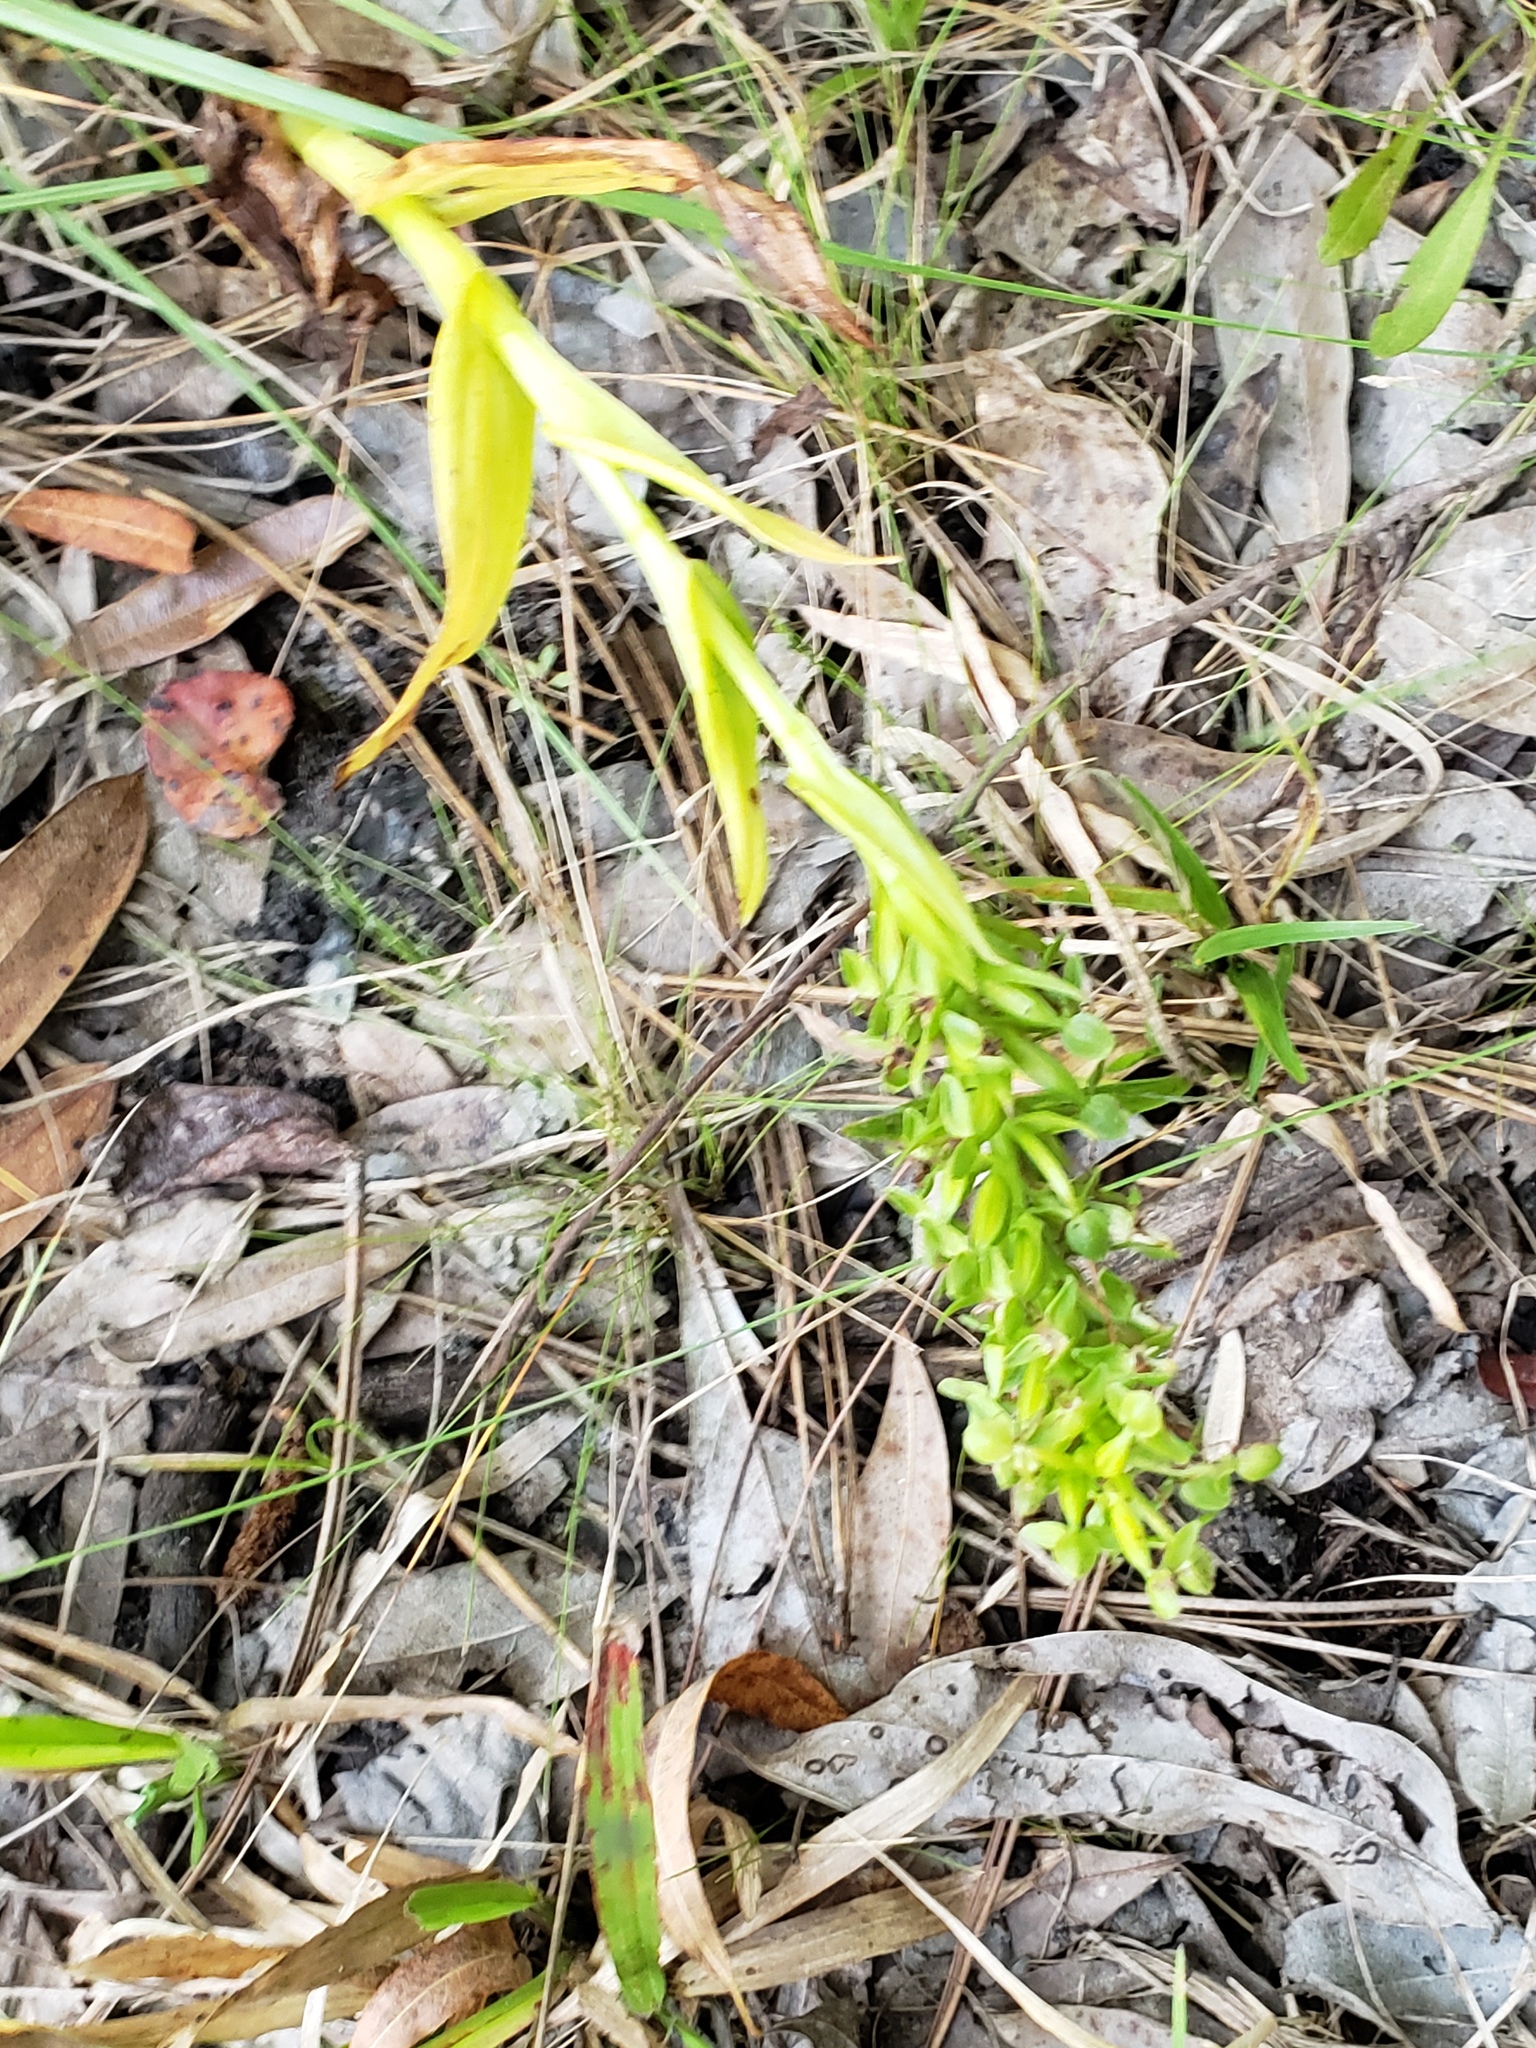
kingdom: Plantae
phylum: Tracheophyta
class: Liliopsida
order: Asparagales
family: Orchidaceae
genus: Habenaria
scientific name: Habenaria repens
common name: Water orchid
